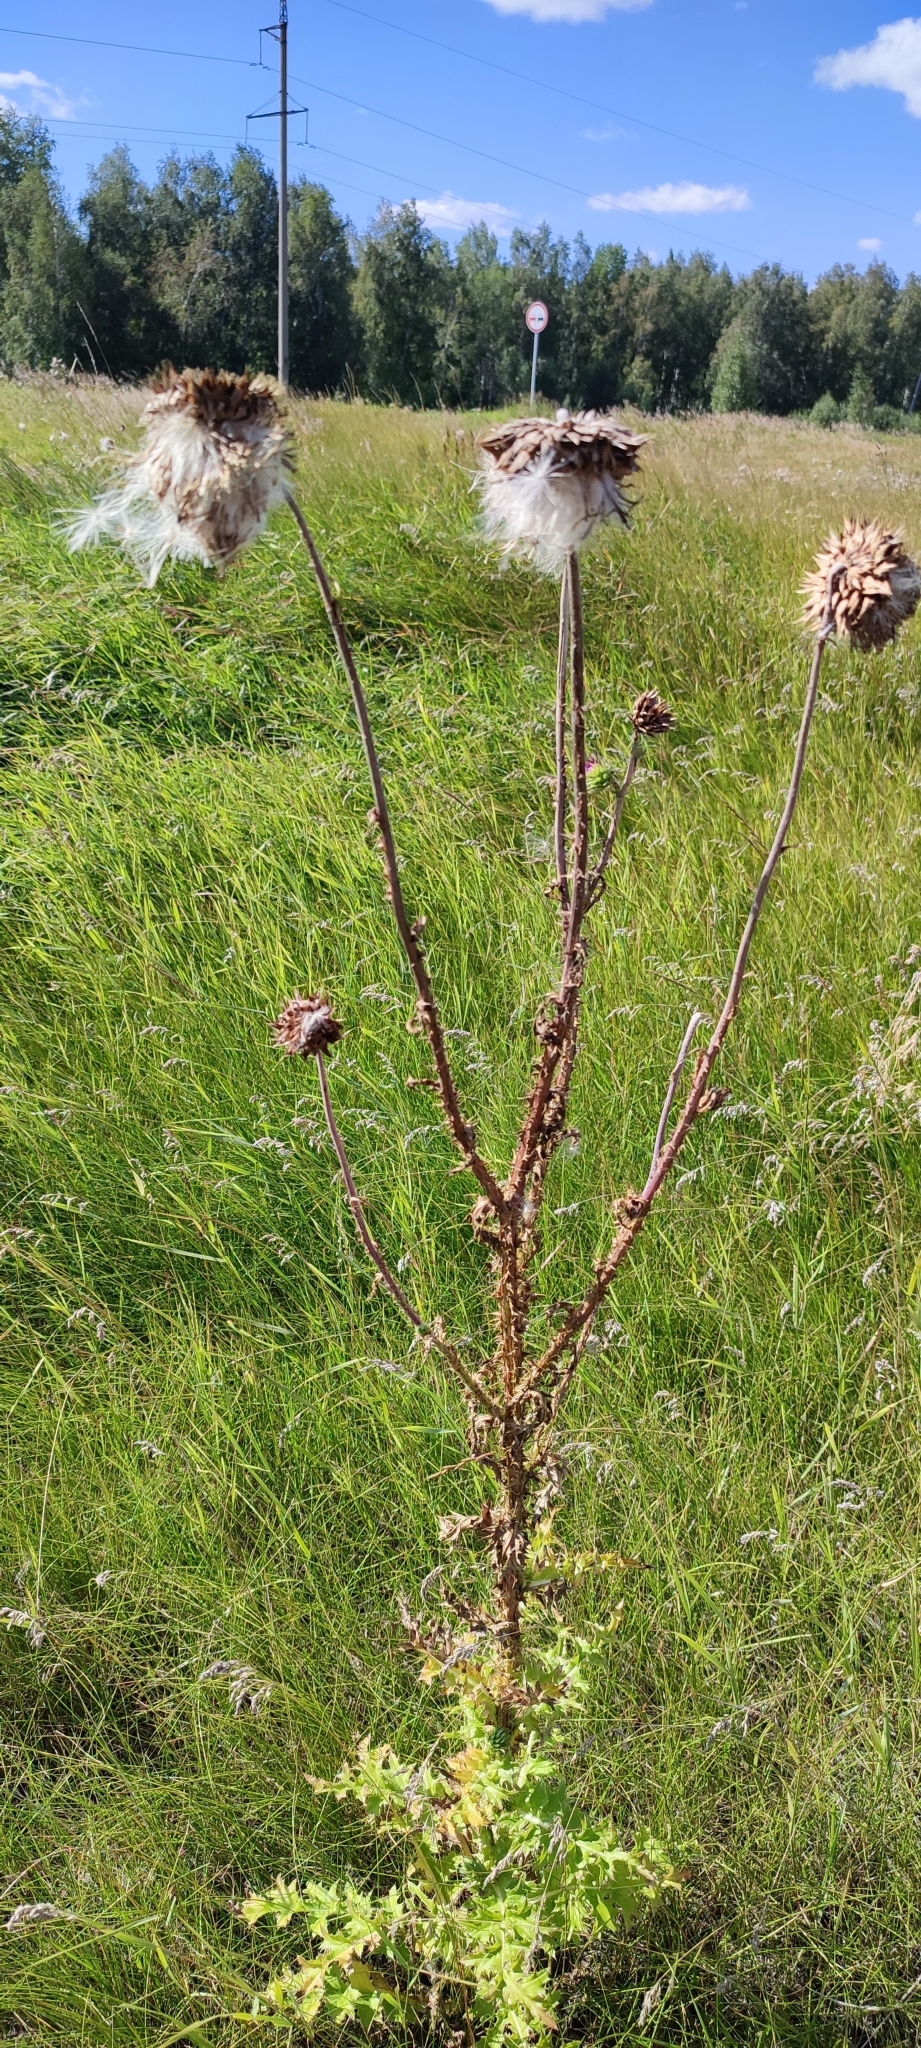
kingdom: Plantae
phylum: Tracheophyta
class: Magnoliopsida
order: Asterales
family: Asteraceae
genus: Carduus
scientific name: Carduus nutans
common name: Musk thistle
